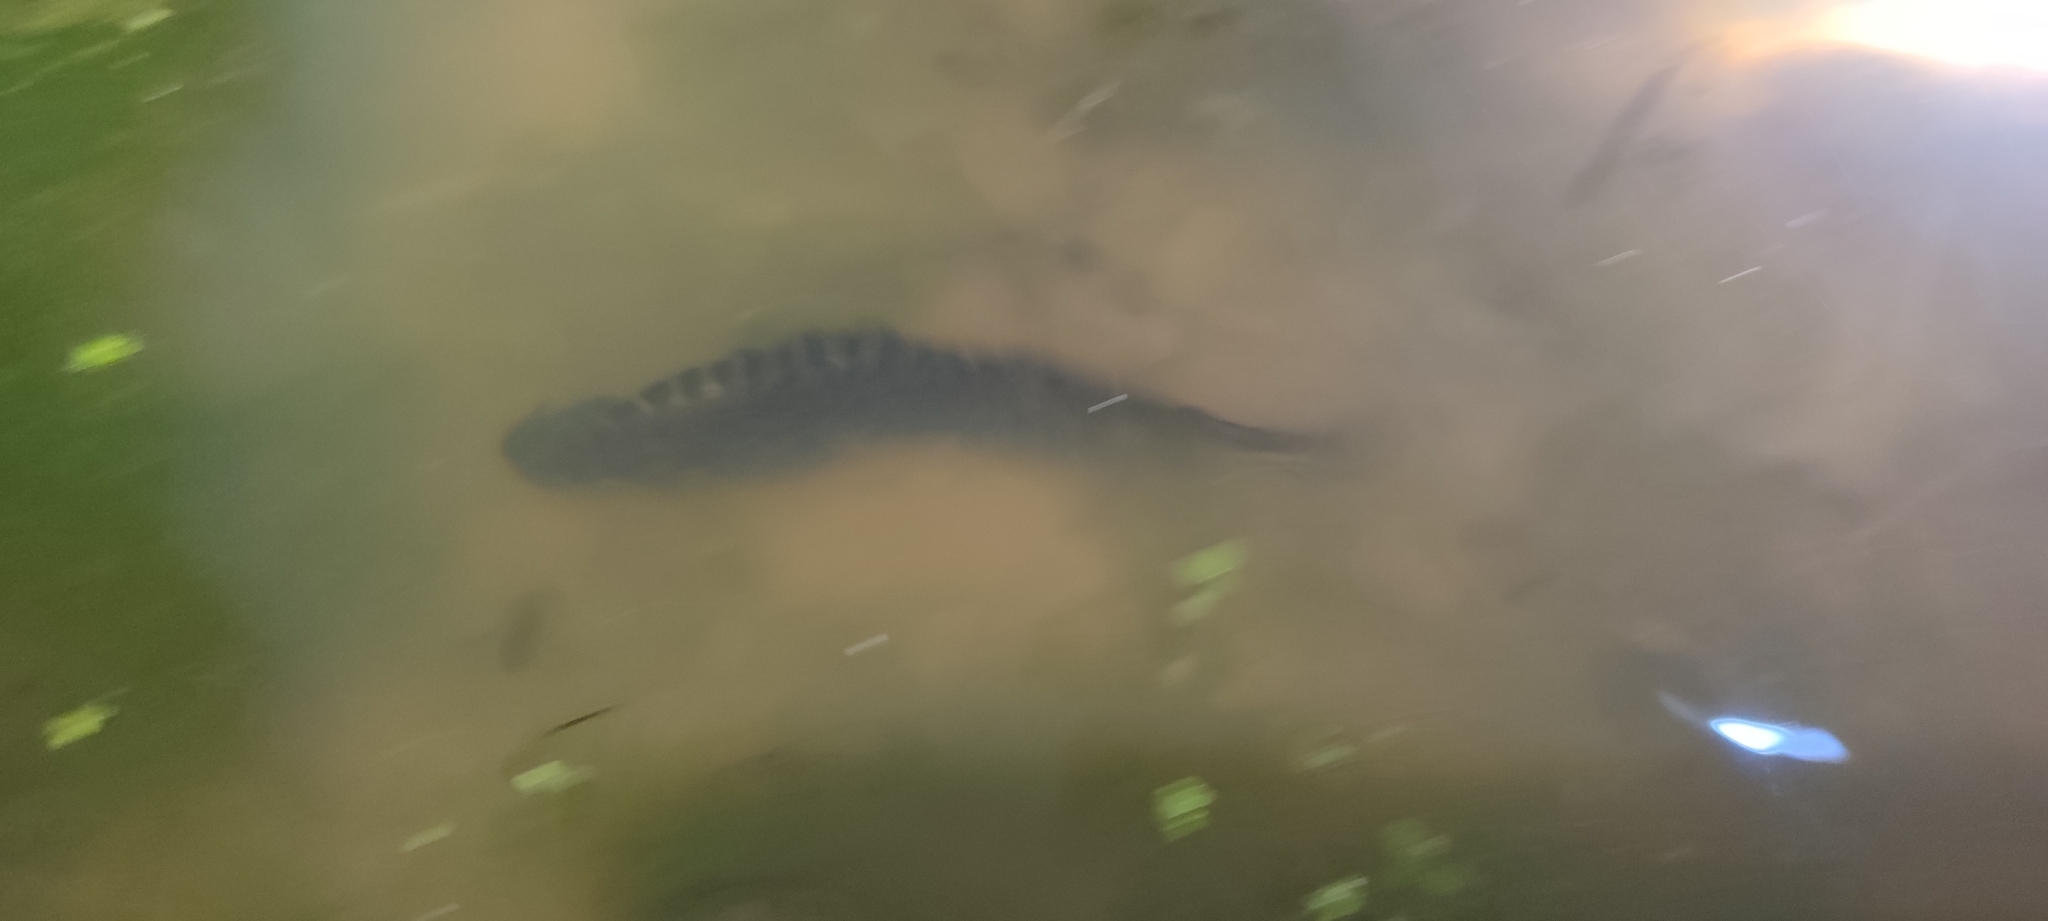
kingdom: Animalia
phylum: Chordata
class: Amphibia
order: Caudata
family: Salamandridae
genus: Triturus
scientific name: Triturus marmoratus
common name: Marbled newt
